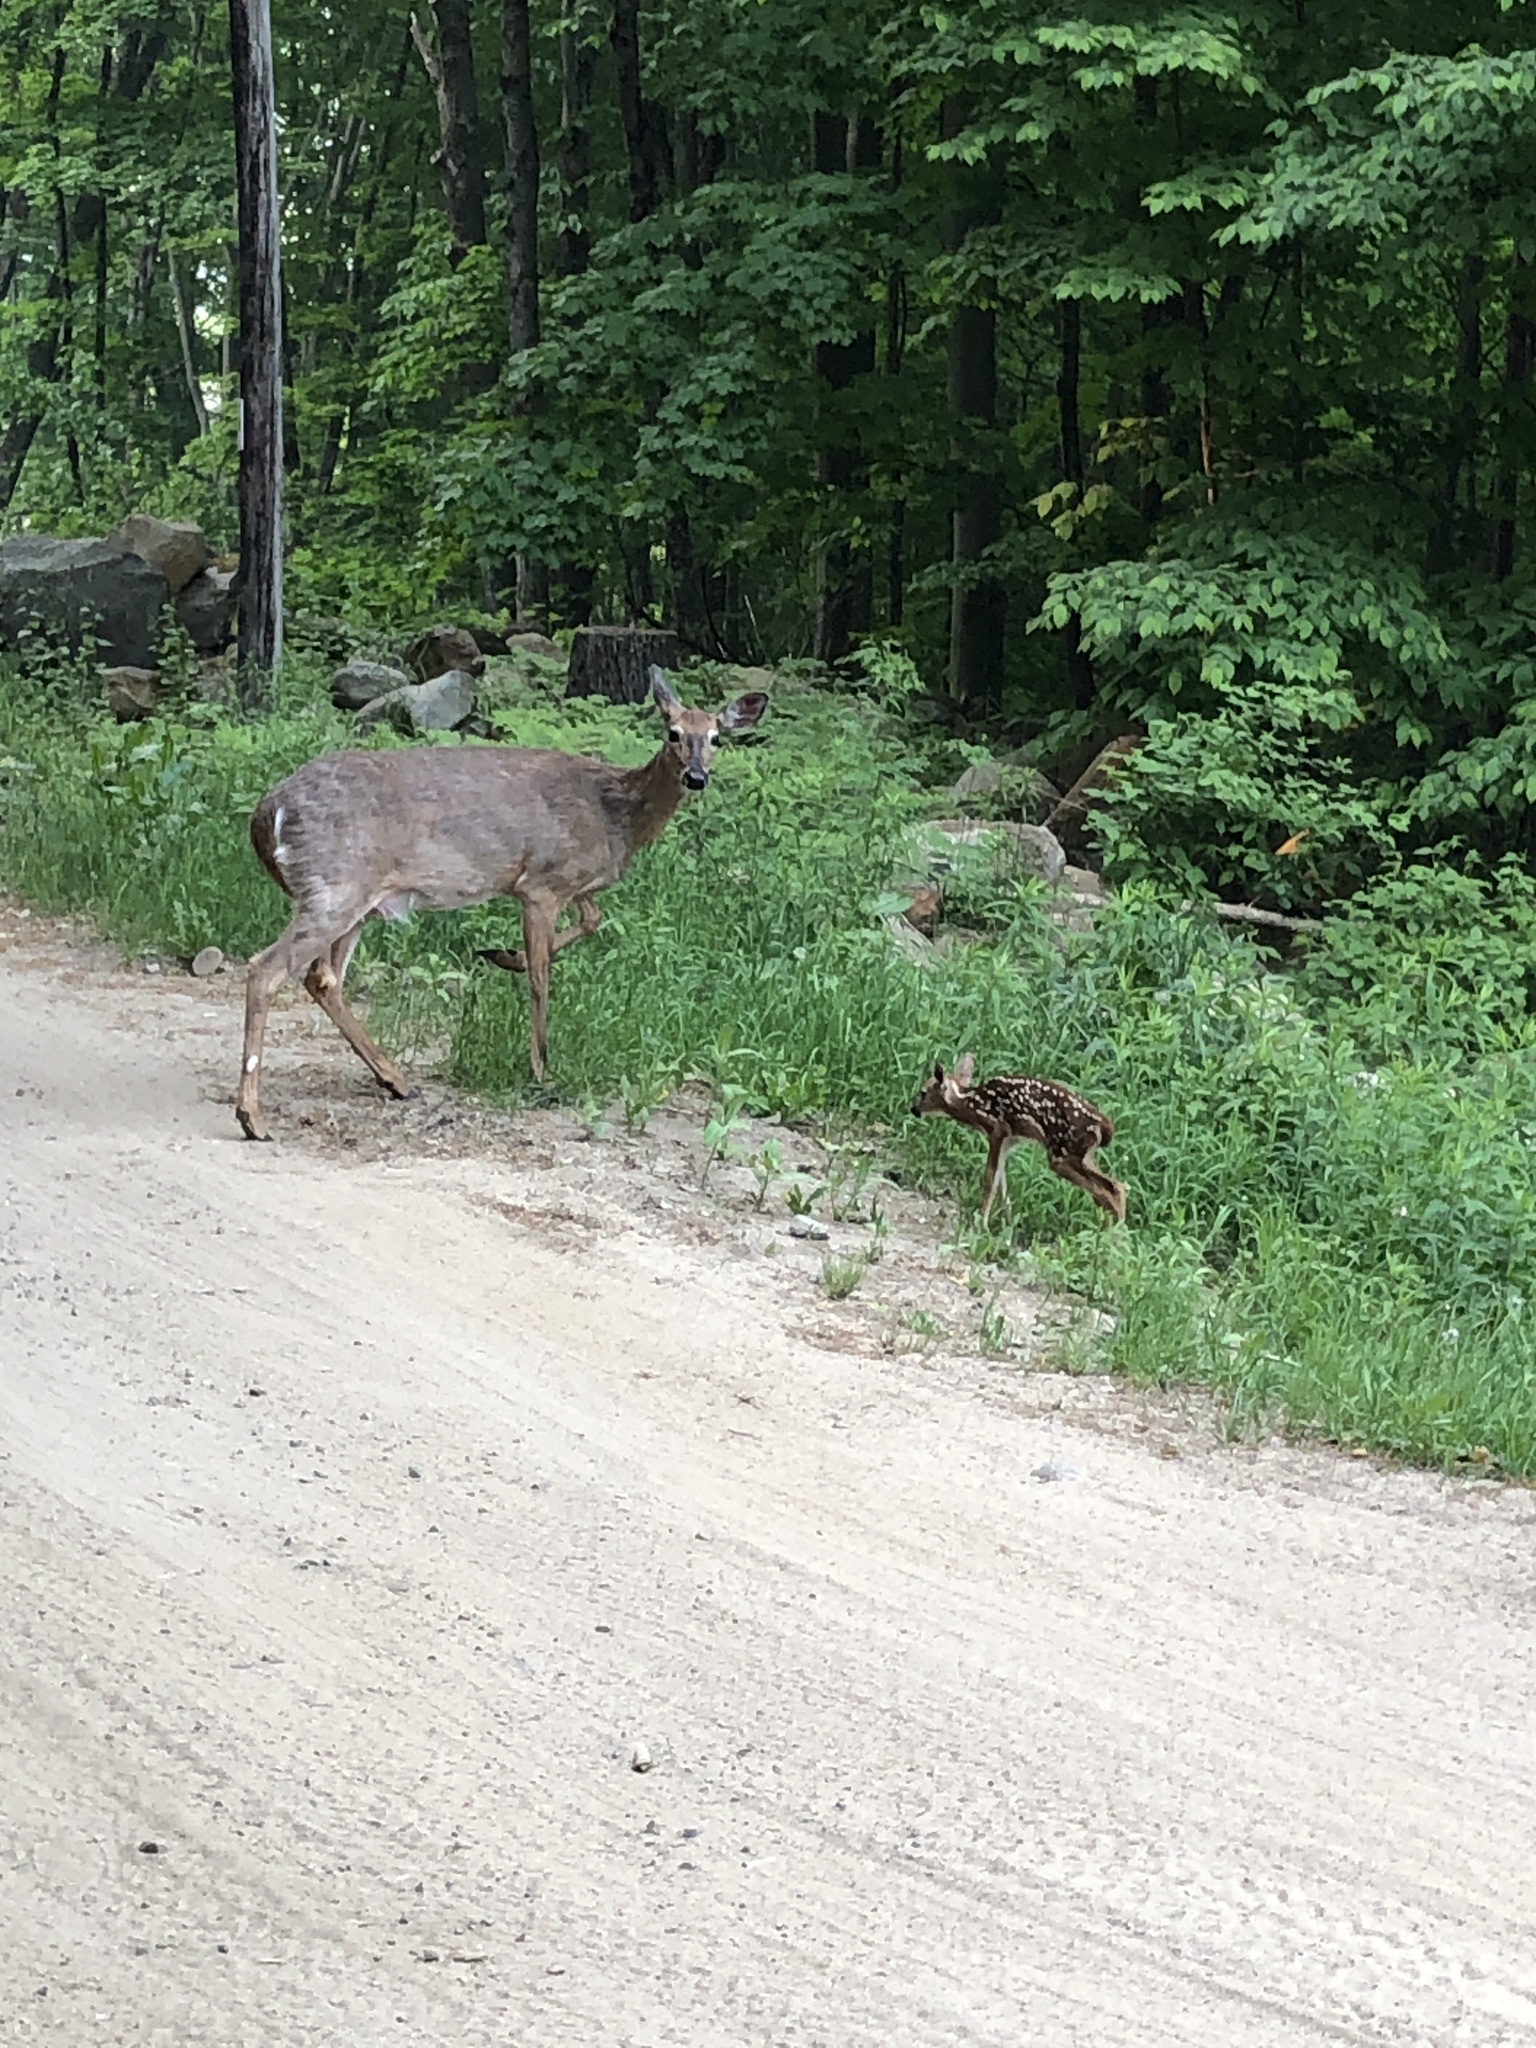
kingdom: Animalia
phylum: Chordata
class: Mammalia
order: Artiodactyla
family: Cervidae
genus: Odocoileus
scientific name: Odocoileus virginianus
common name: White-tailed deer
